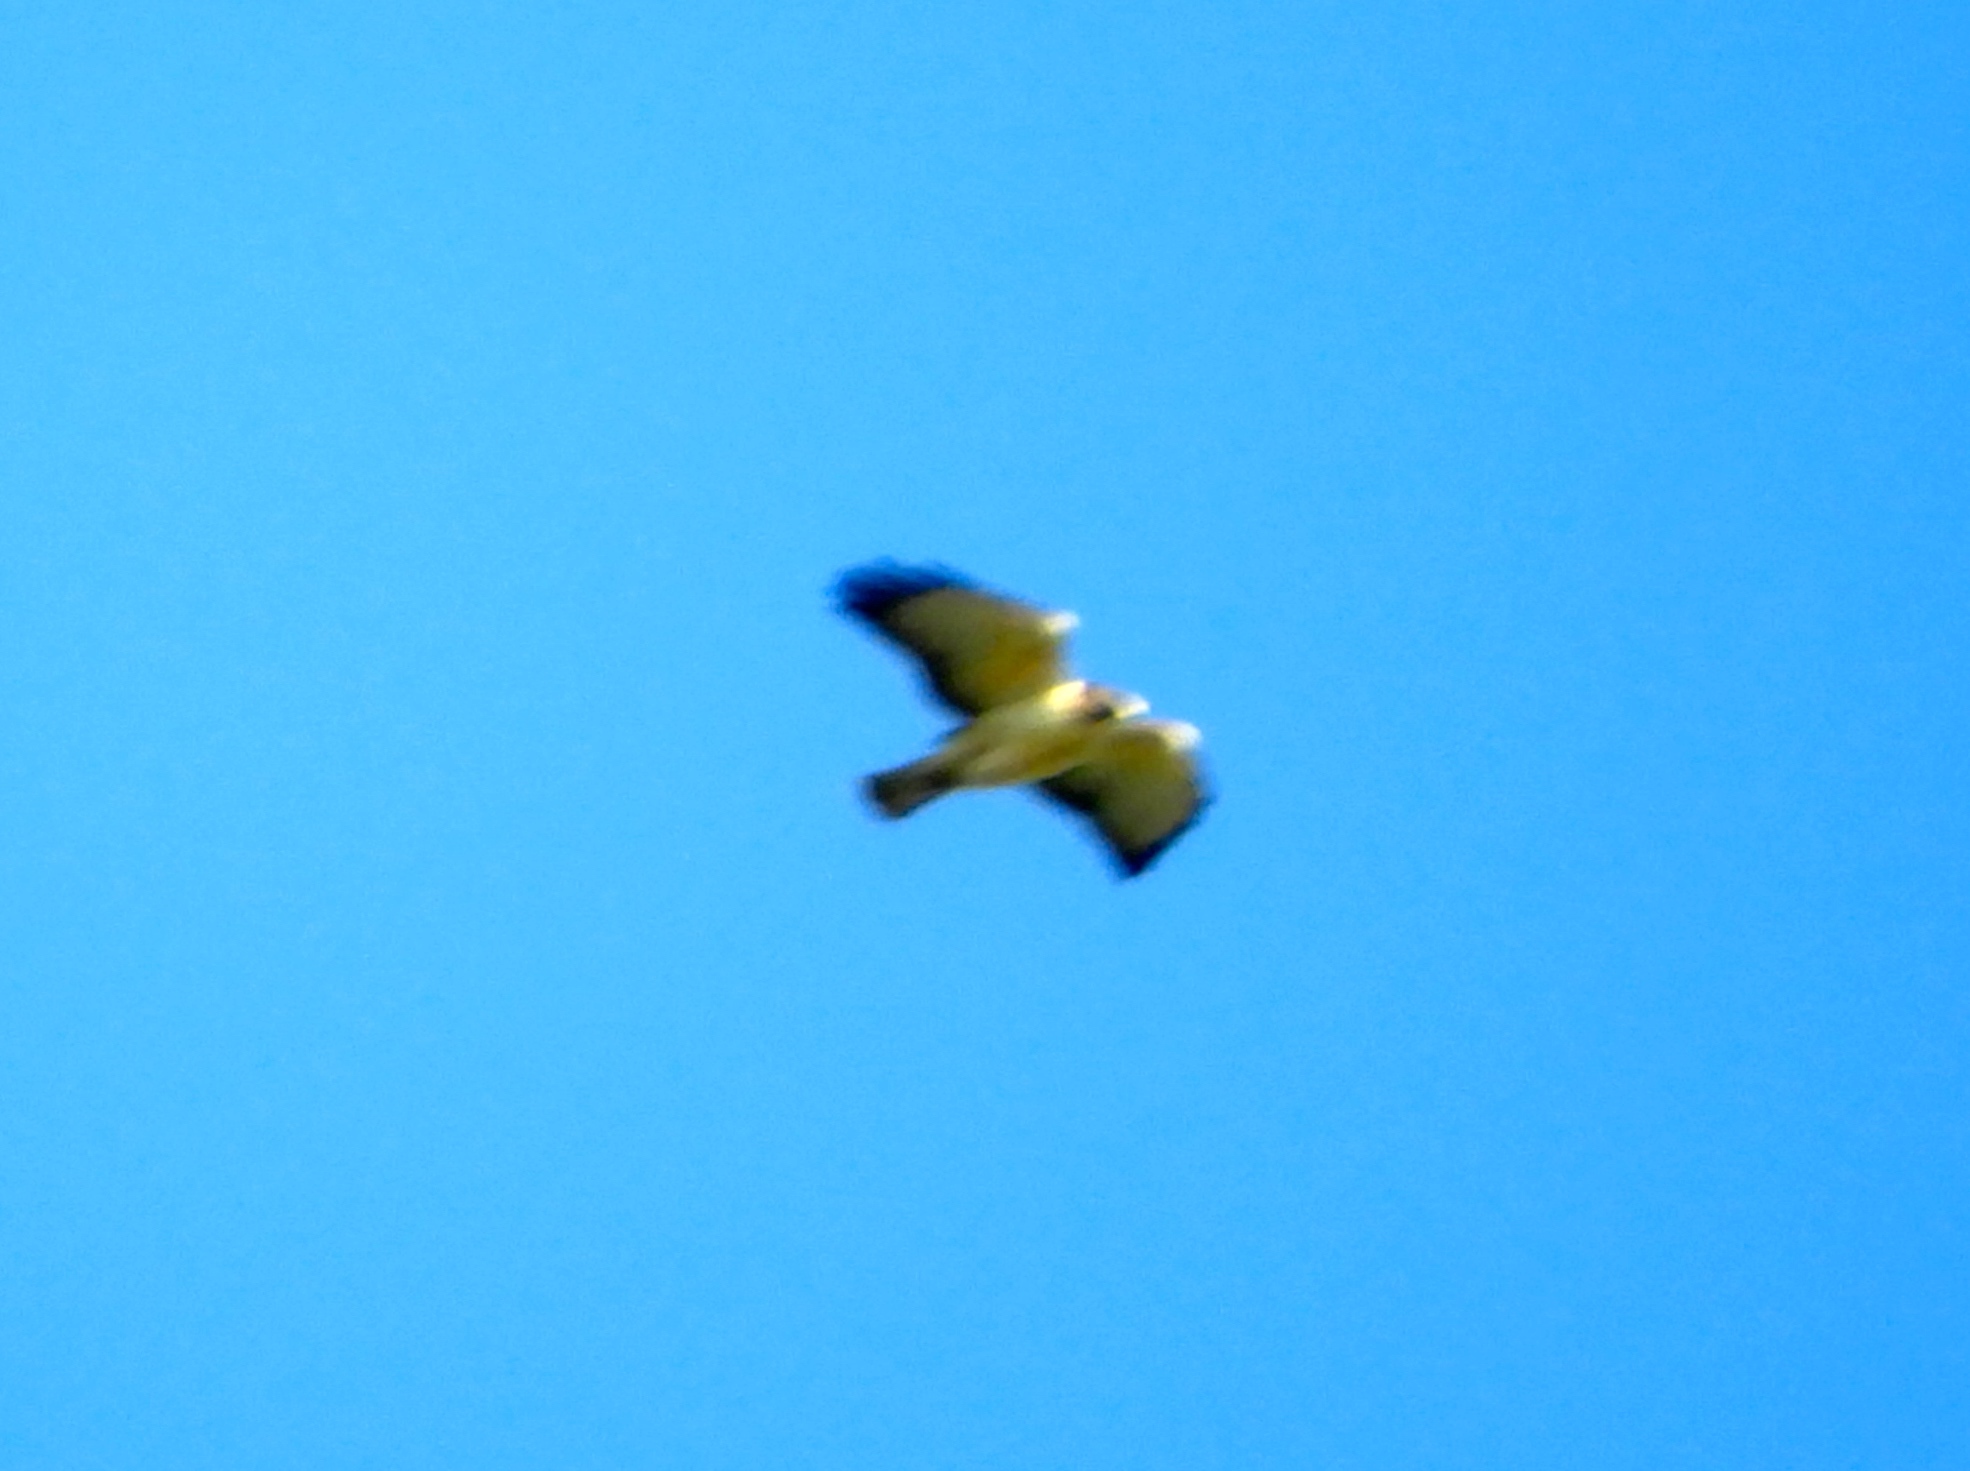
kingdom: Animalia
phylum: Chordata
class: Aves
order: Accipitriformes
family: Accipitridae
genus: Buteo
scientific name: Buteo brachyurus
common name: Short-tailed hawk
